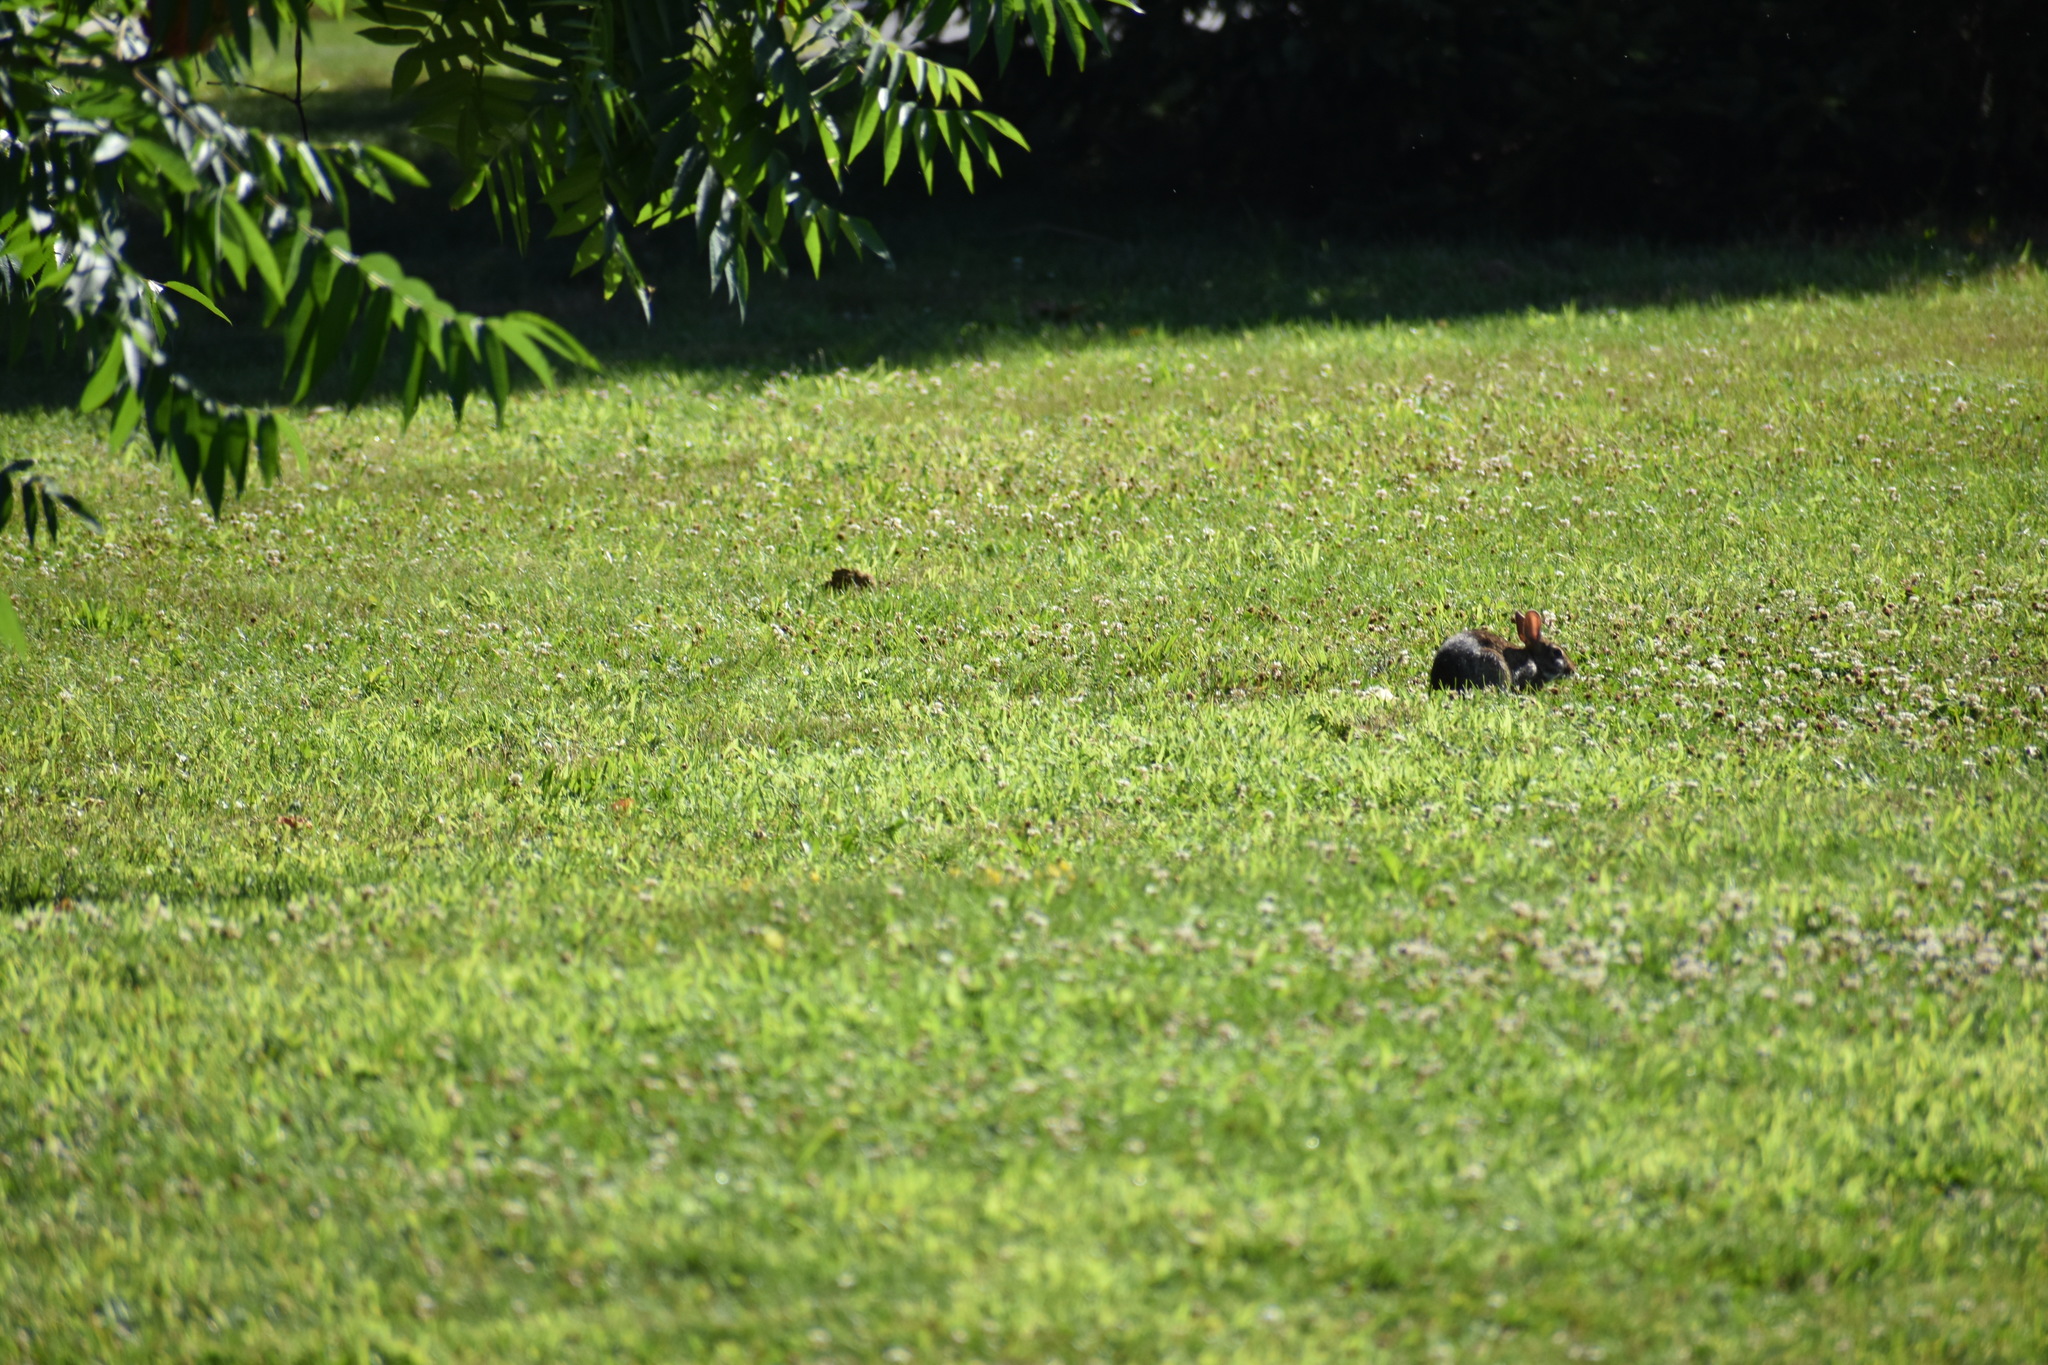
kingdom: Animalia
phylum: Chordata
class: Mammalia
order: Lagomorpha
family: Leporidae
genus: Sylvilagus
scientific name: Sylvilagus floridanus
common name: Eastern cottontail
